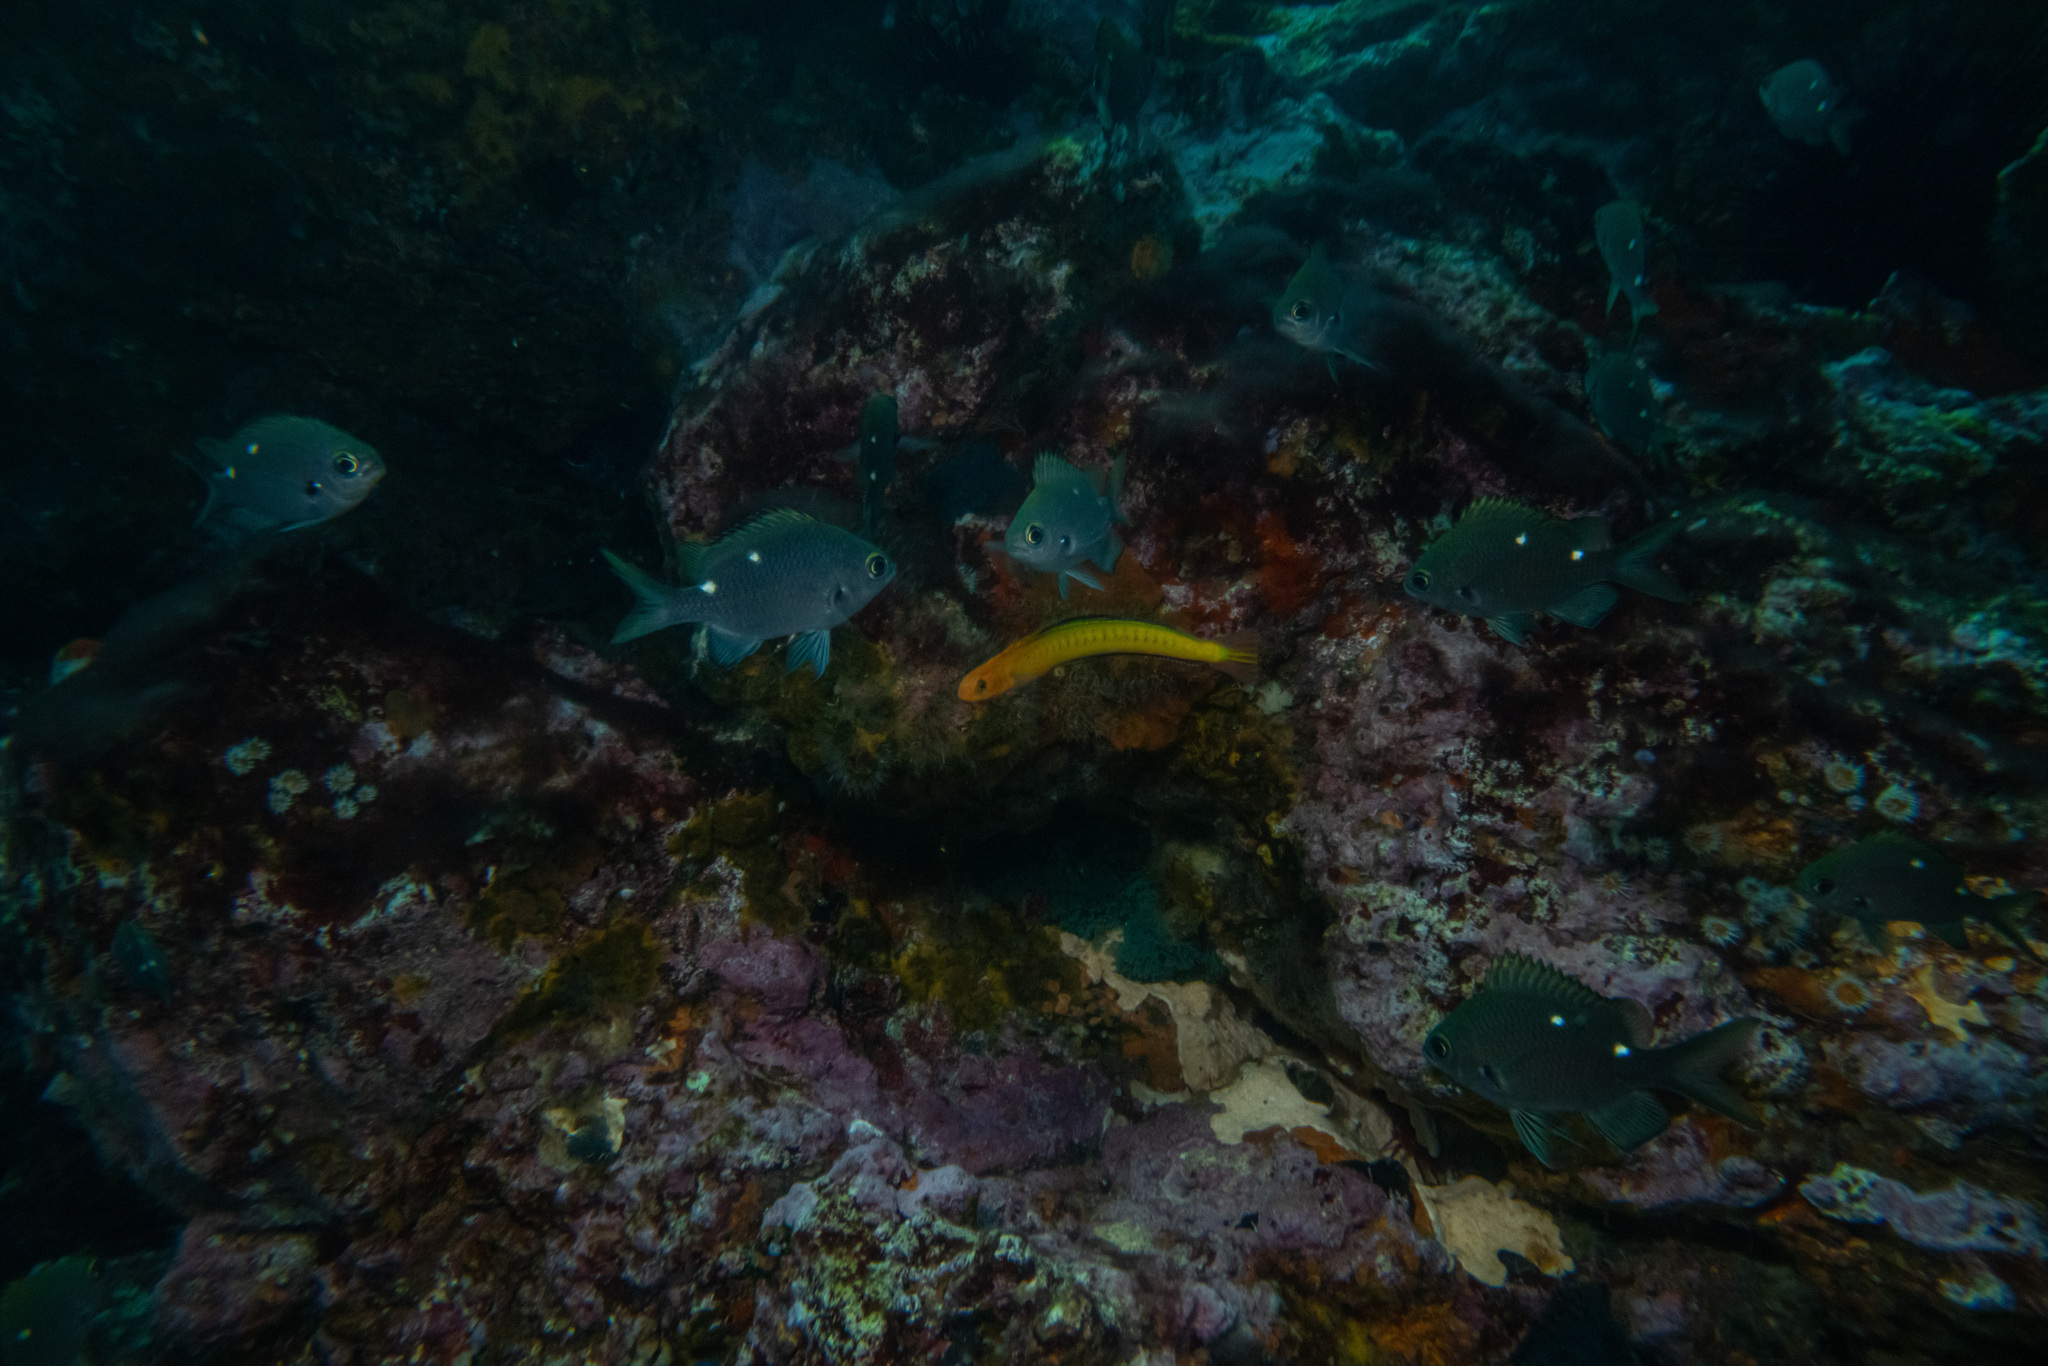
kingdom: Animalia
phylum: Chordata
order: Perciformes
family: Blenniidae
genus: Plagiotremus
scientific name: Plagiotremus tapeinosoma
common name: Hit and run blenny
